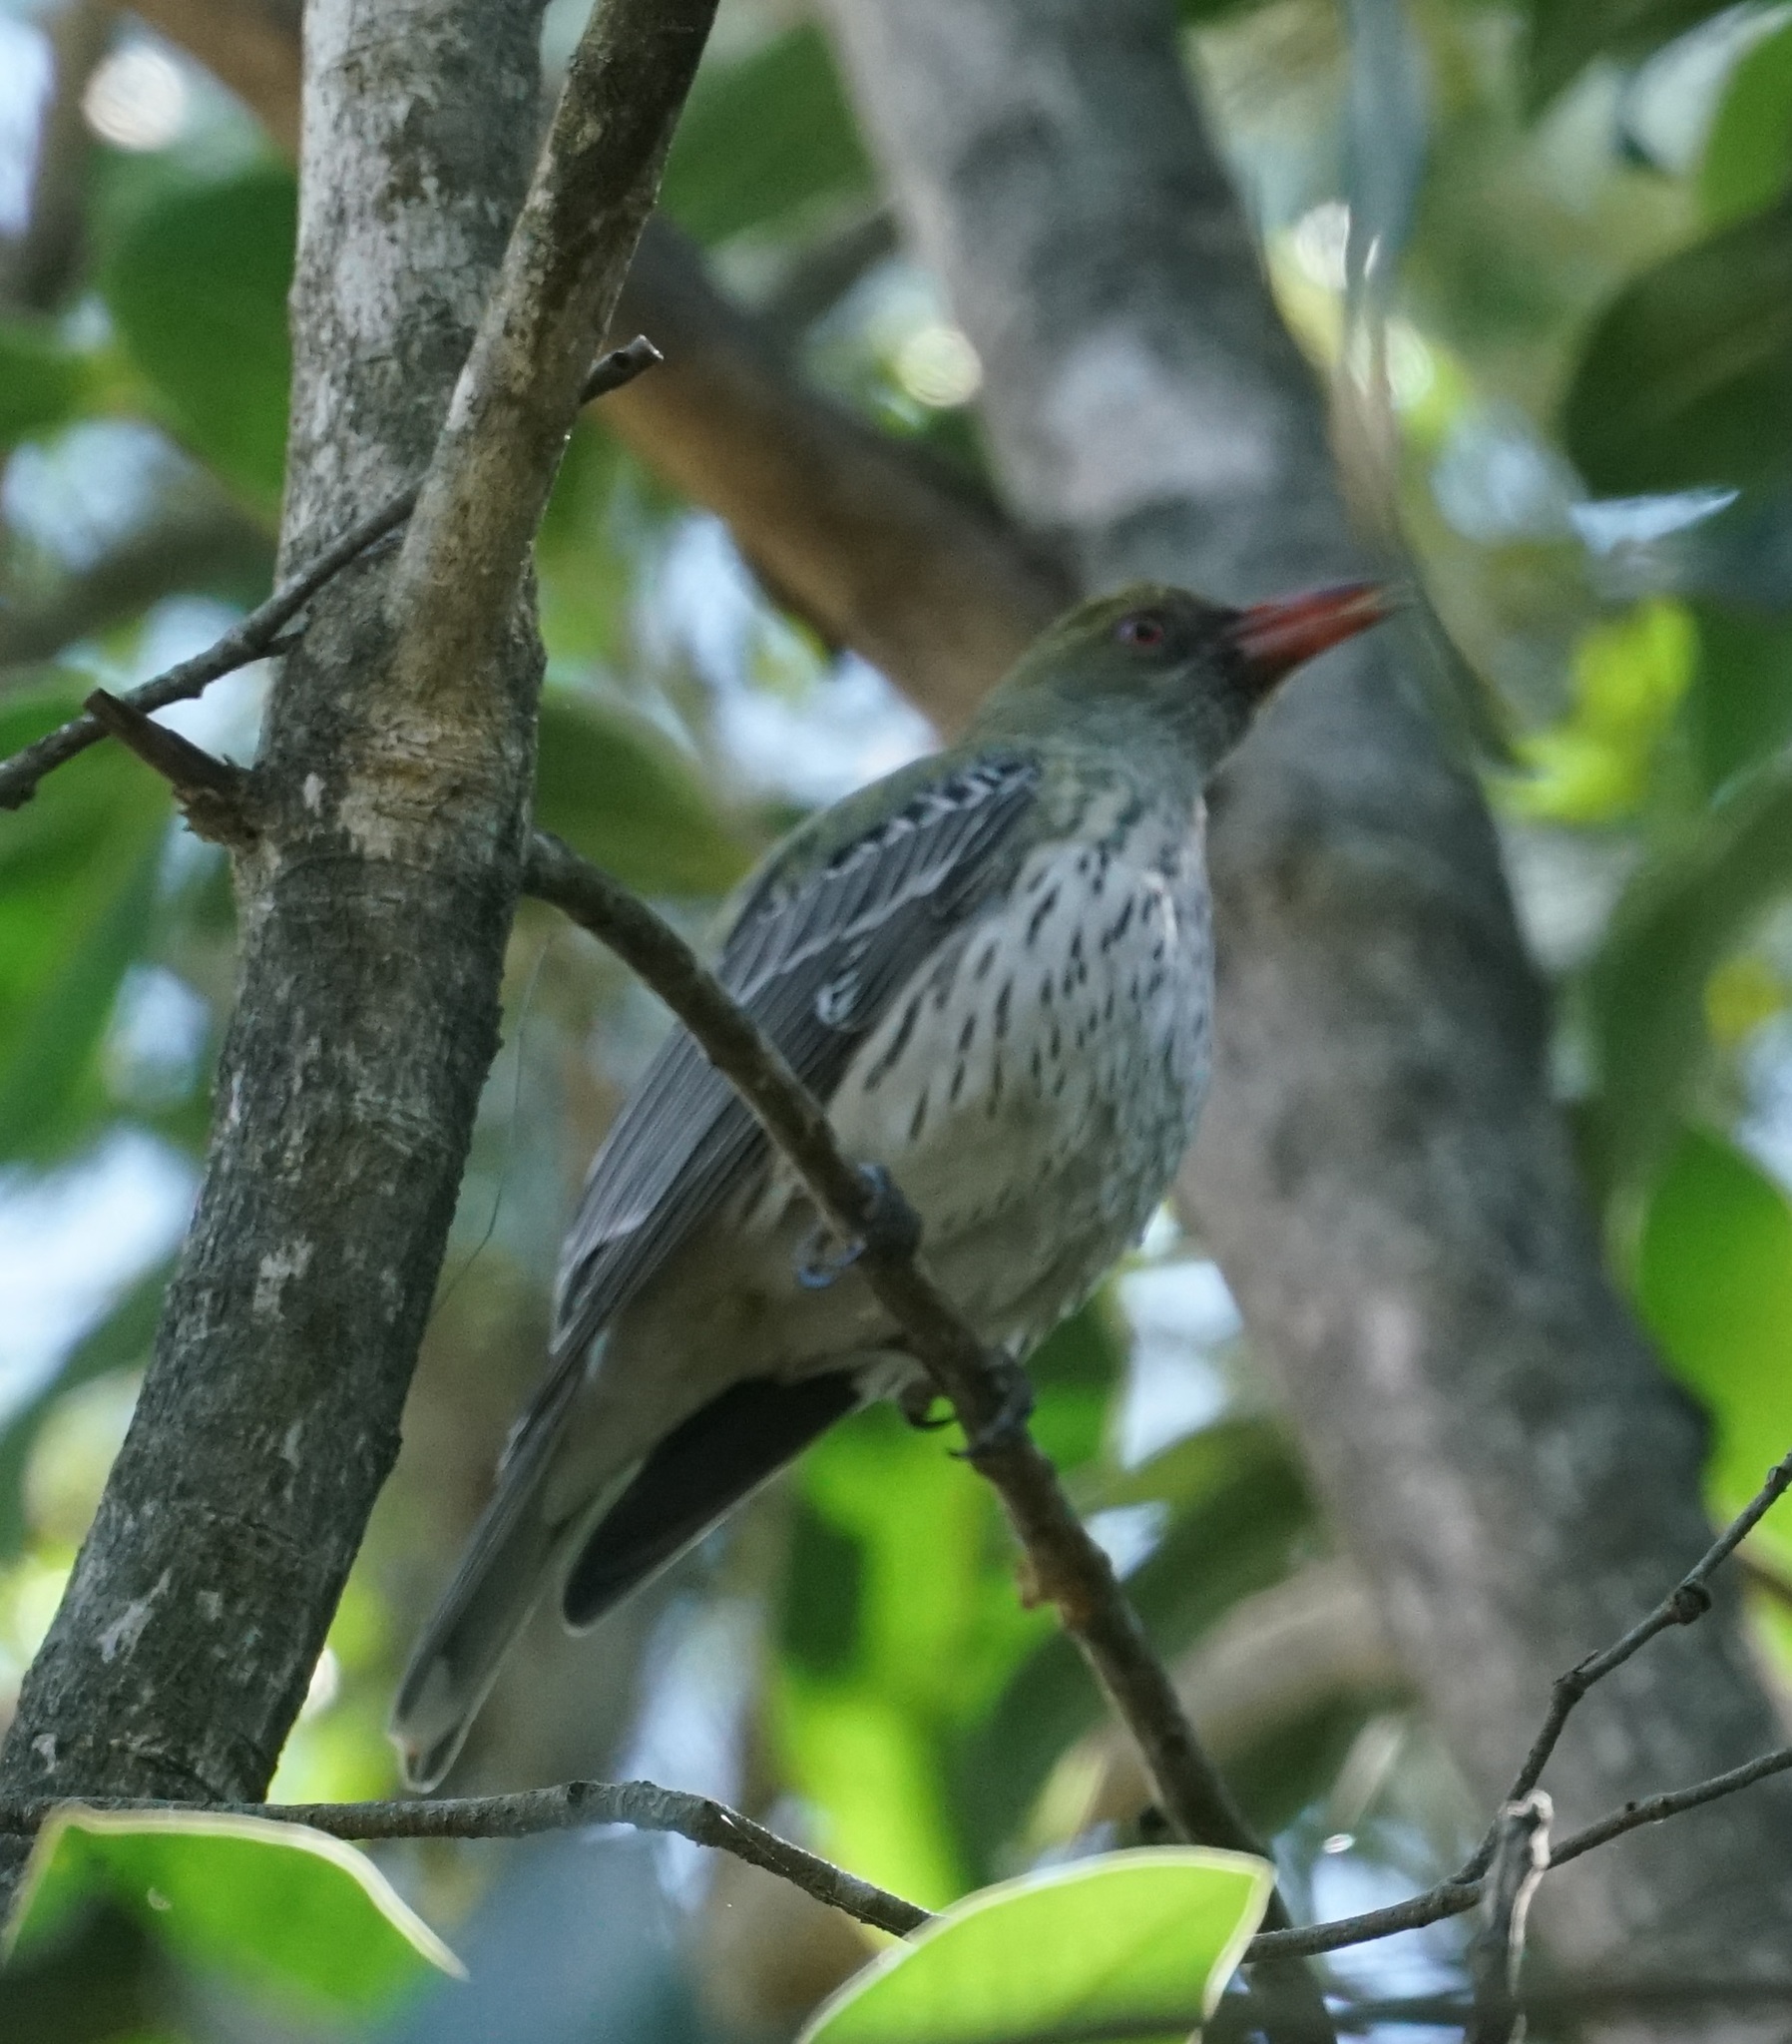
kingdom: Animalia
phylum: Chordata
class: Aves
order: Passeriformes
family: Oriolidae
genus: Oriolus
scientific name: Oriolus sagittatus
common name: Olive-backed oriole
